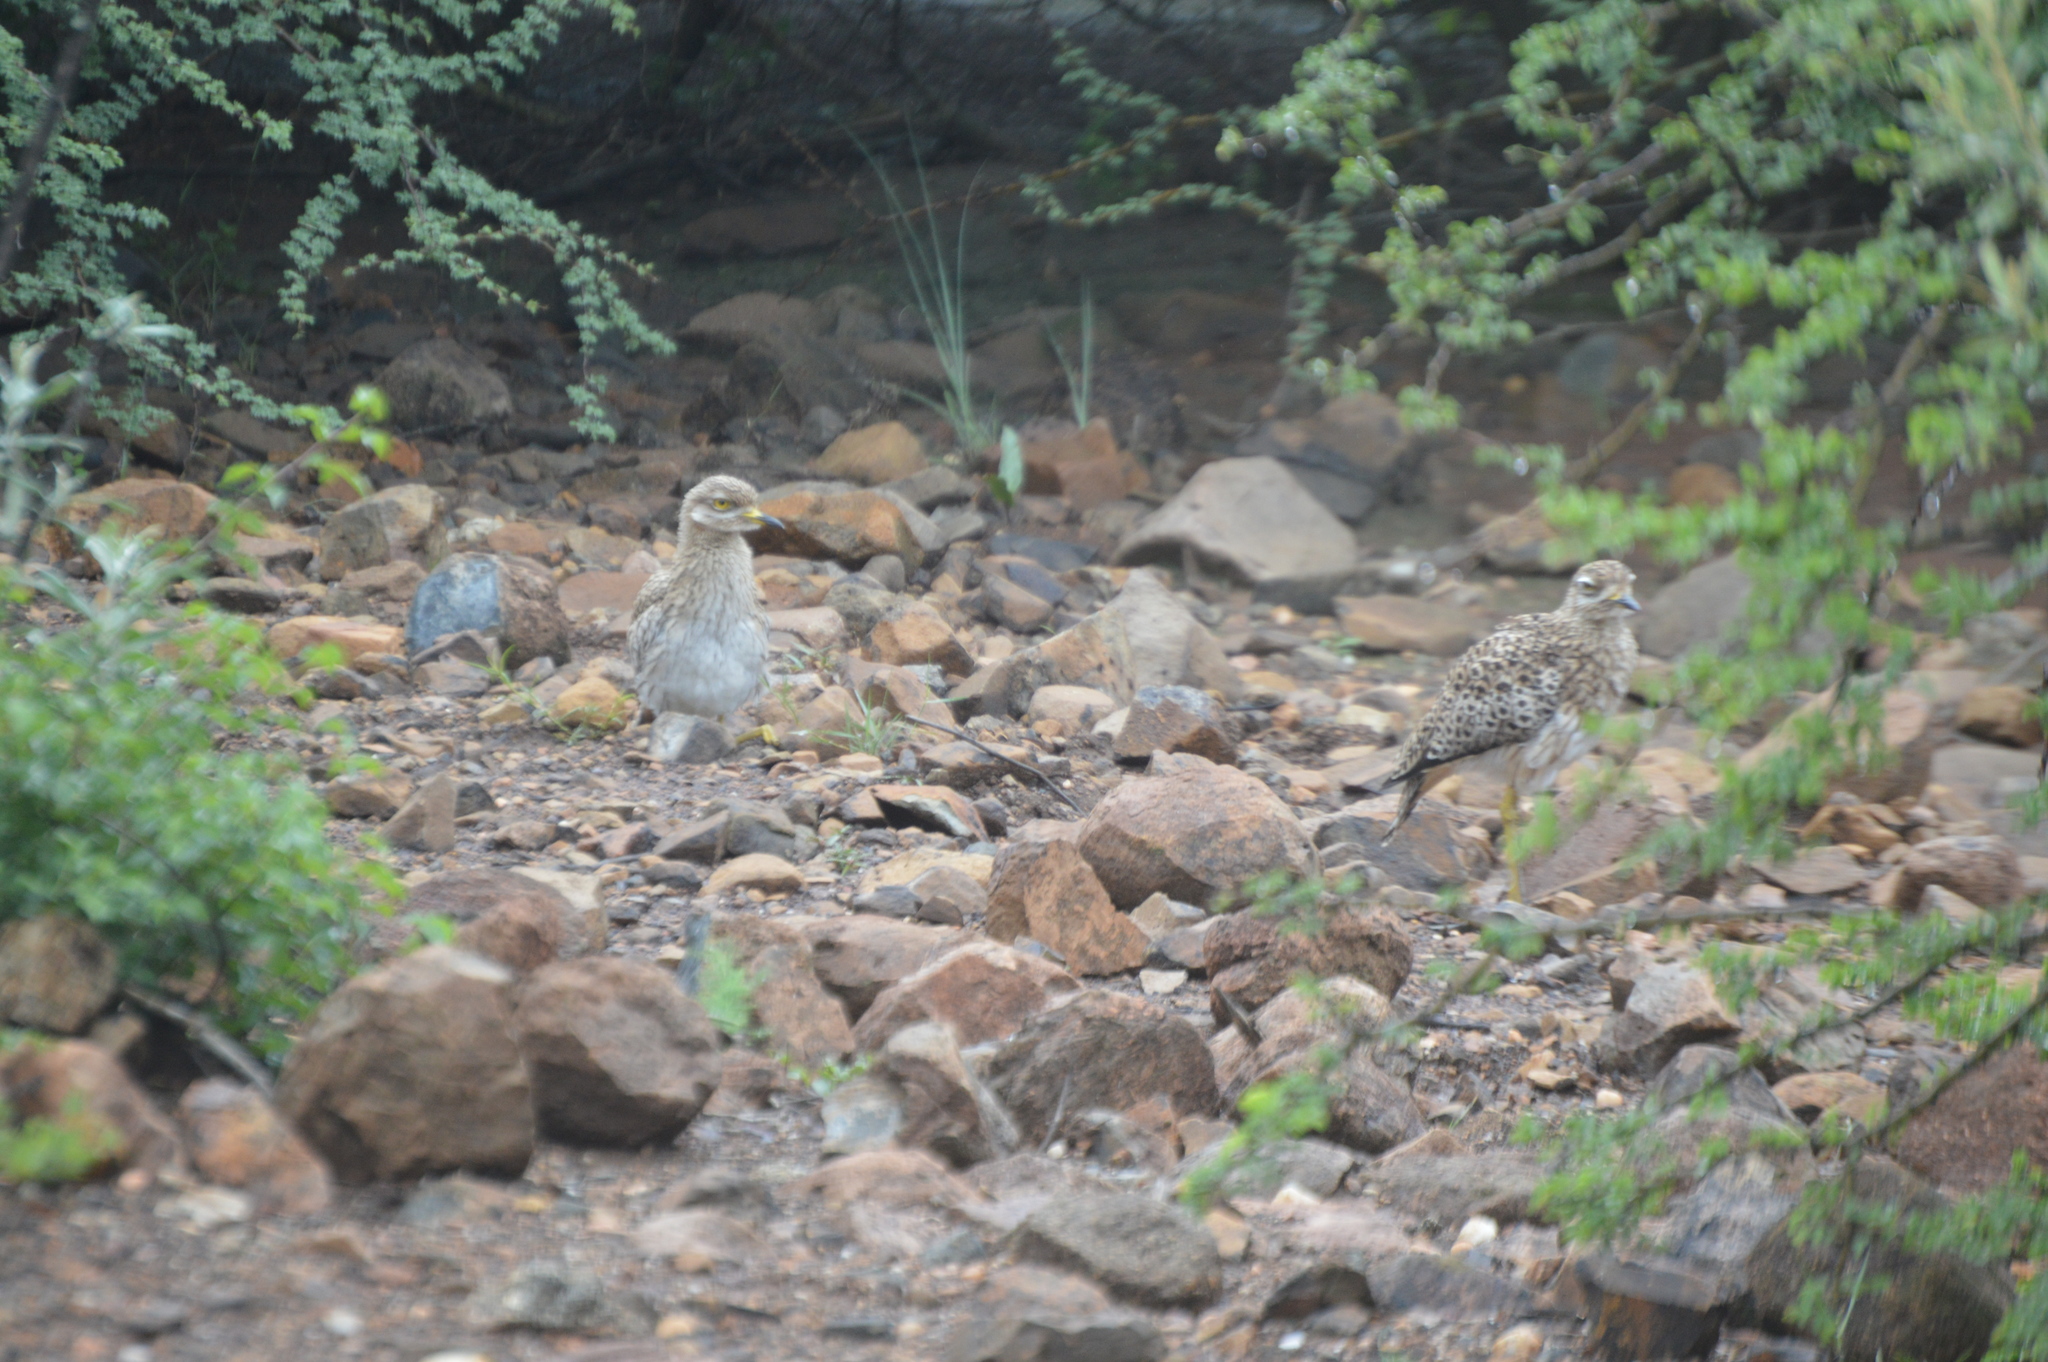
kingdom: Animalia
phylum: Chordata
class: Aves
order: Charadriiformes
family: Burhinidae
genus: Burhinus
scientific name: Burhinus capensis
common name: Spotted thick-knee
